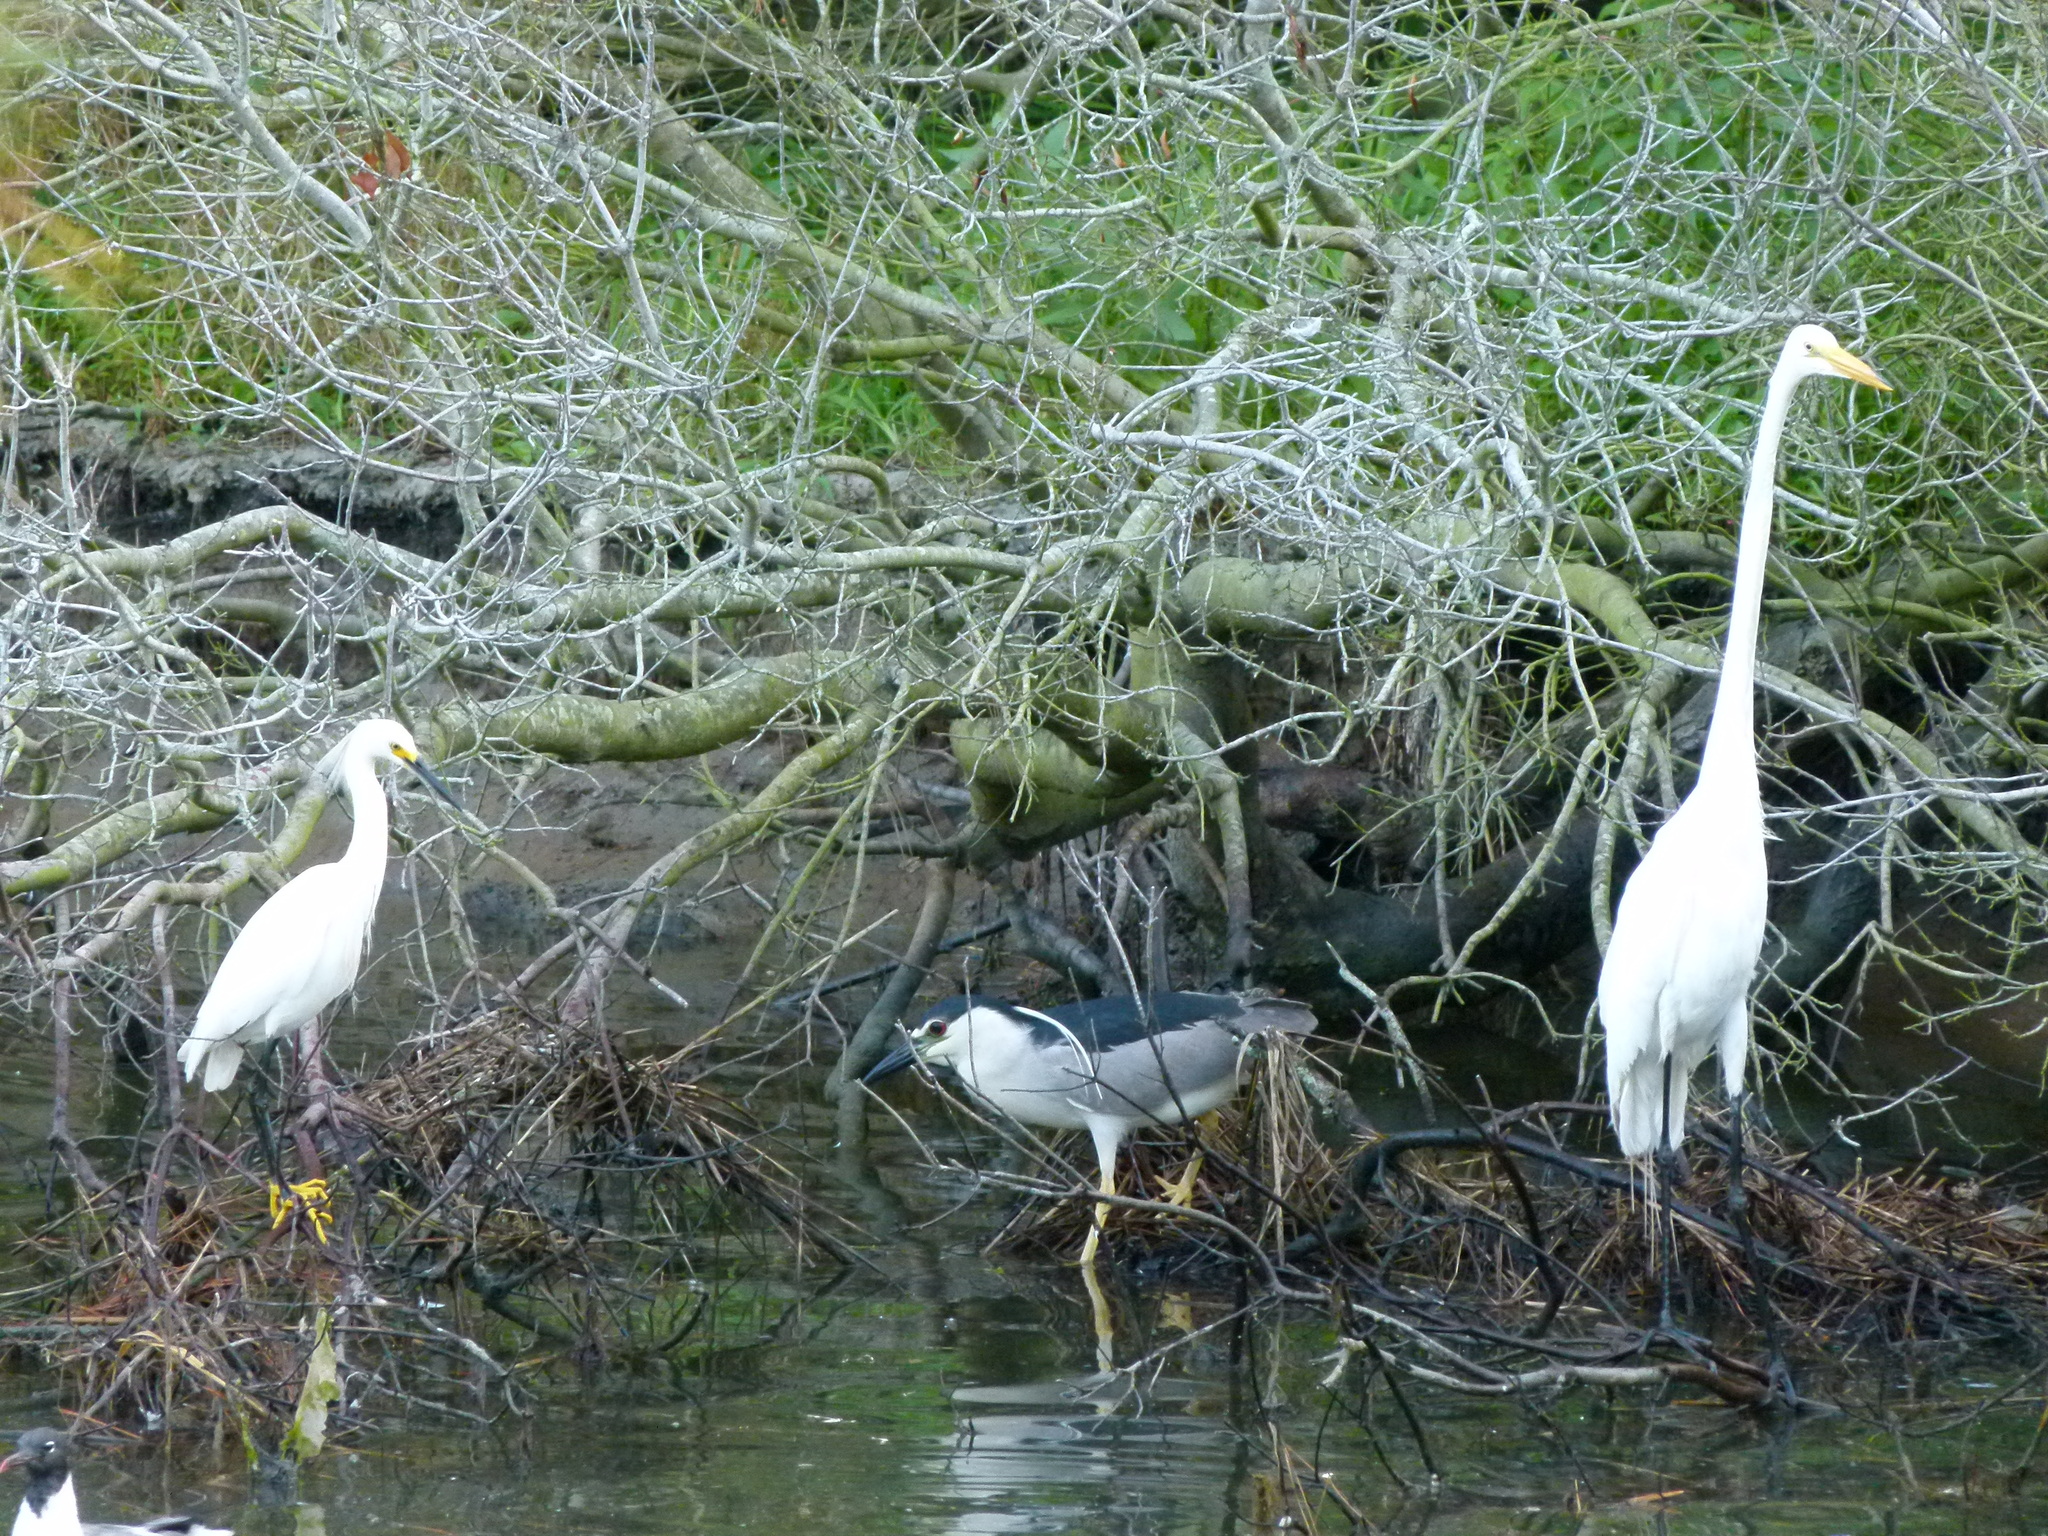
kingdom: Animalia
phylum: Chordata
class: Aves
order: Pelecaniformes
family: Ardeidae
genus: Egretta
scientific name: Egretta thula
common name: Snowy egret
